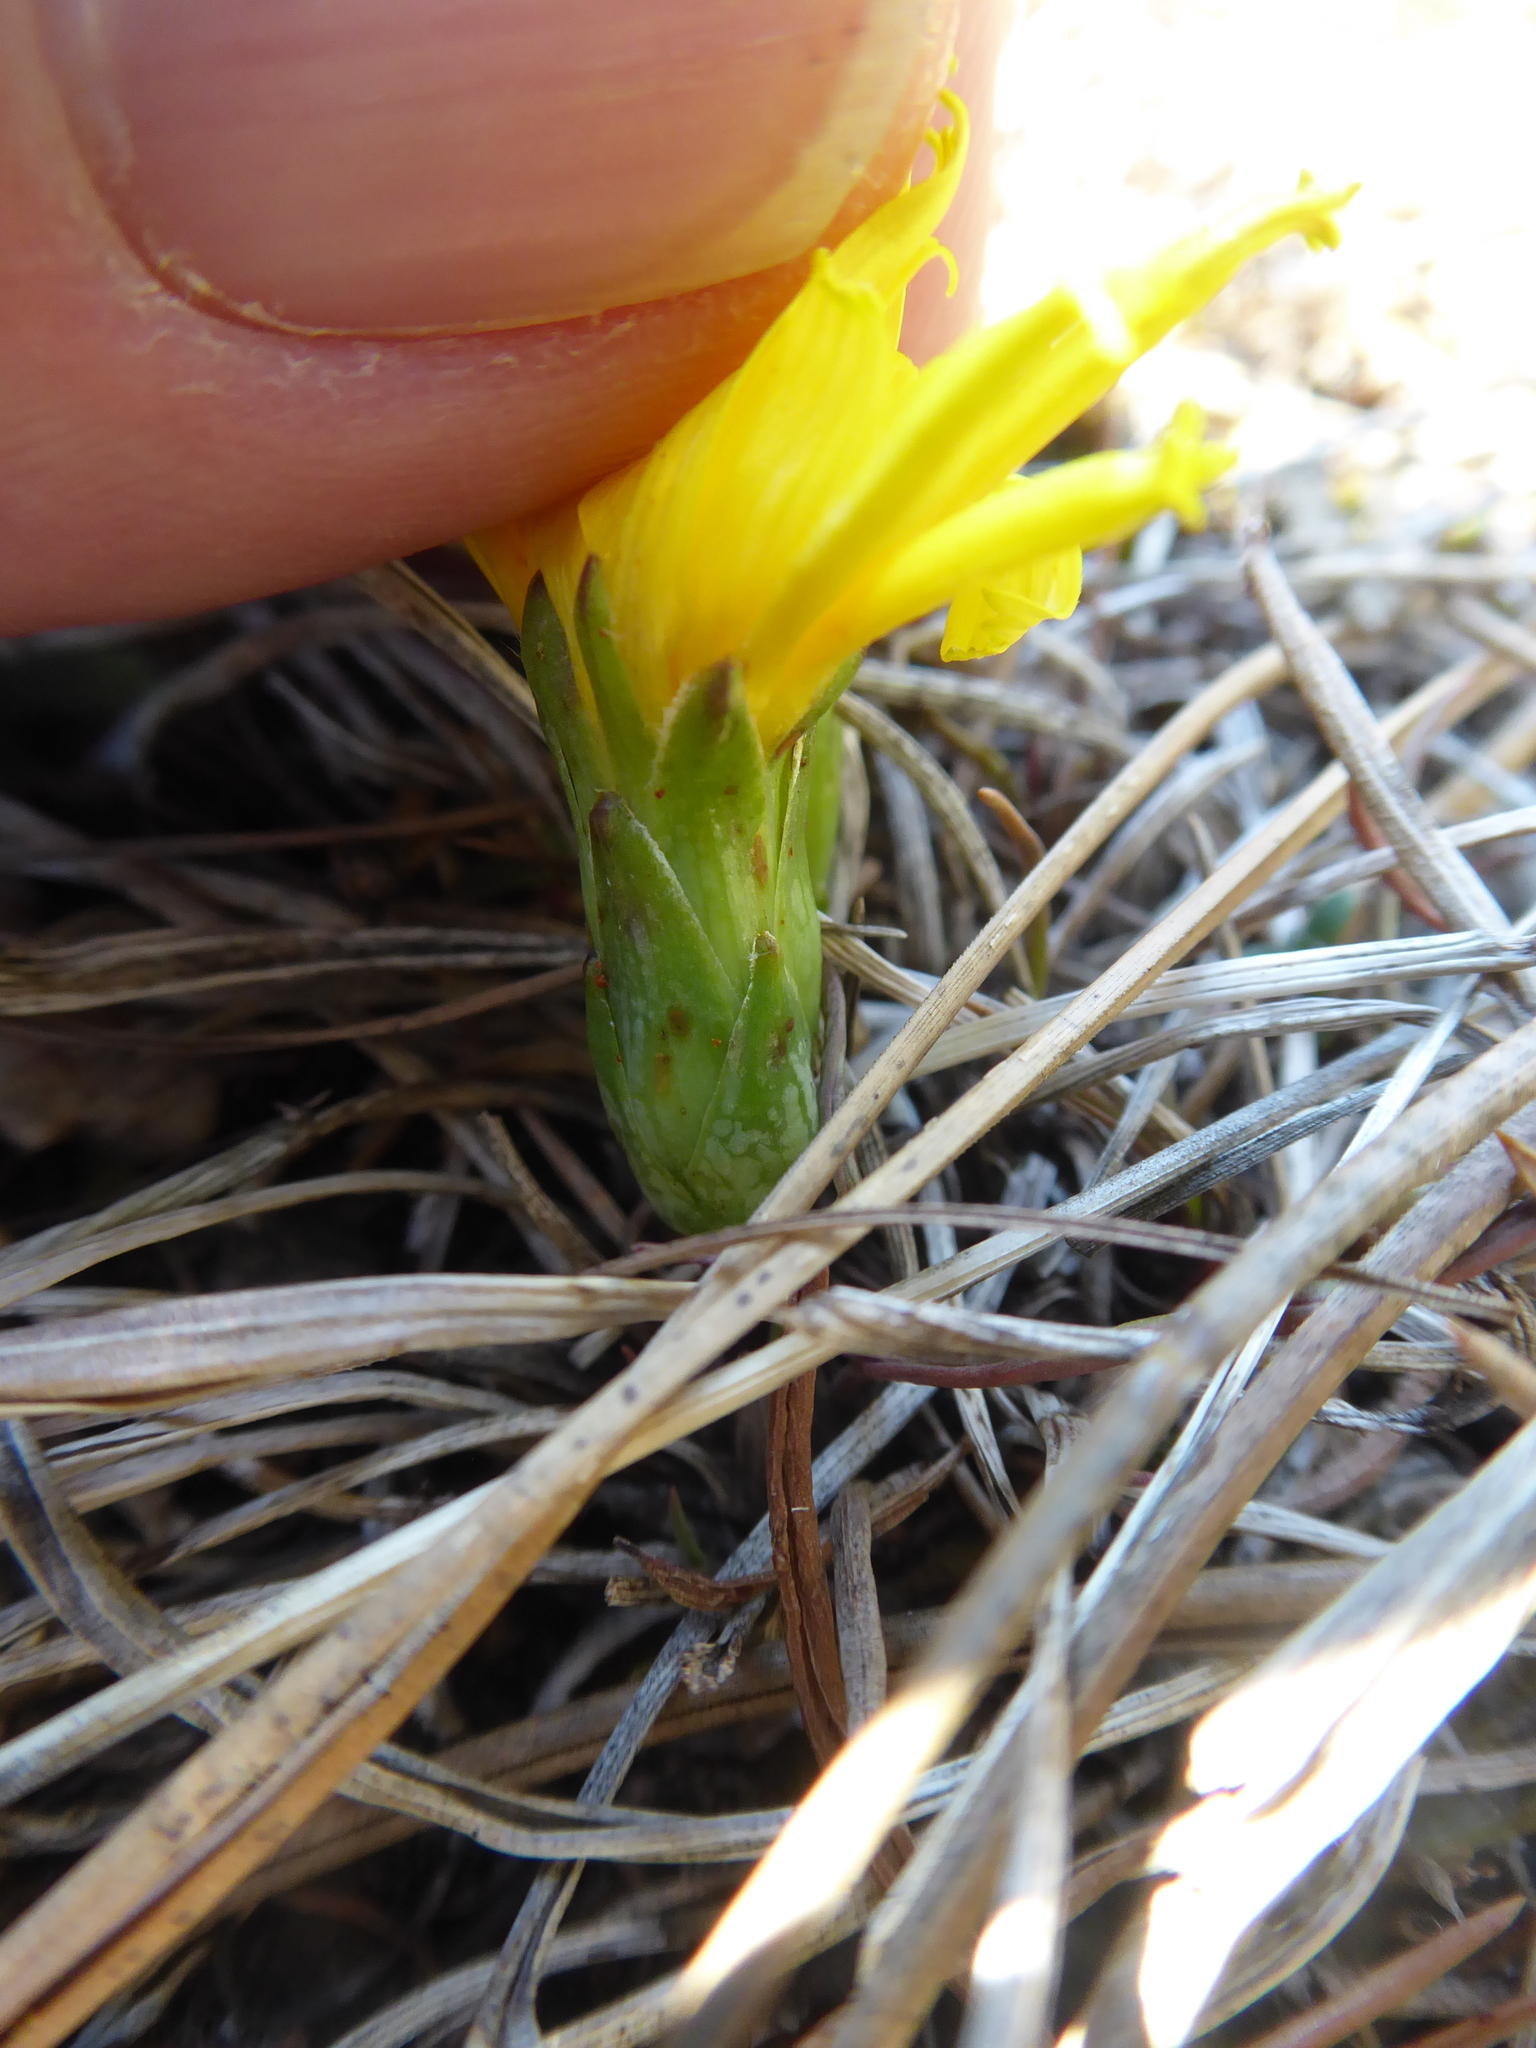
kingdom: Plantae
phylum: Tracheophyta
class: Magnoliopsida
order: Asterales
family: Asteraceae
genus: Takhtajaniantha
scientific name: Takhtajaniantha austriaca
